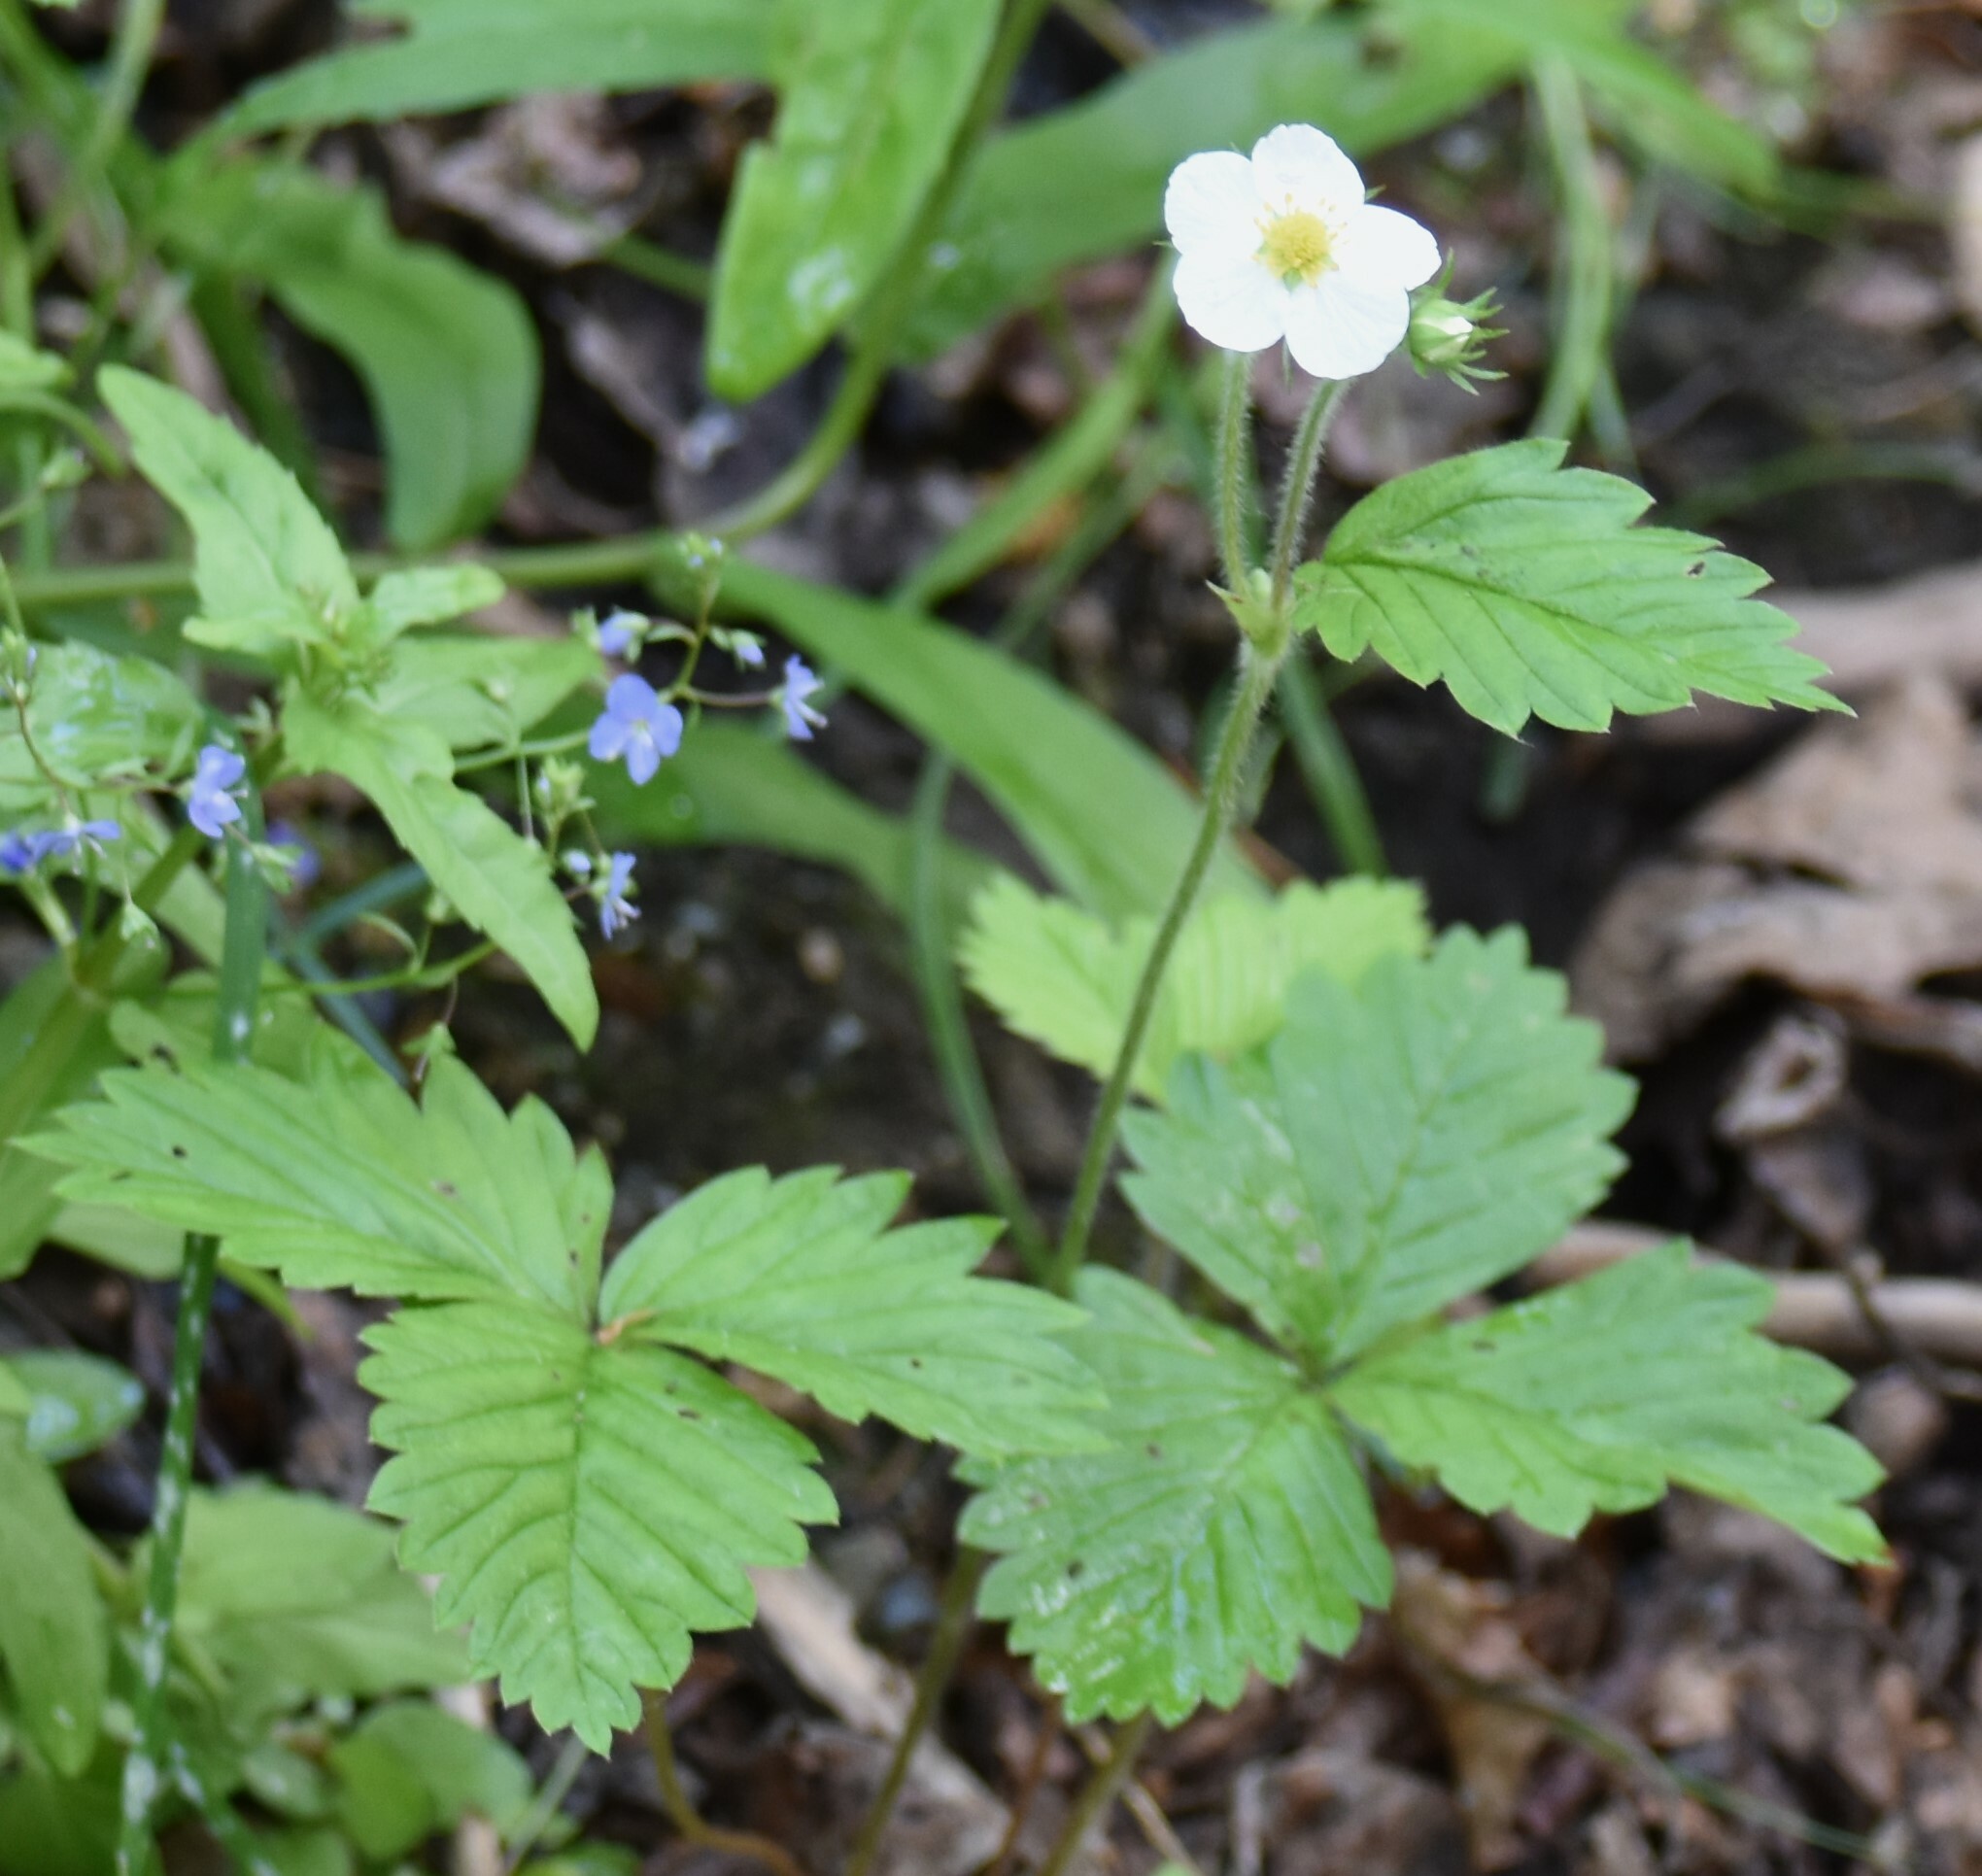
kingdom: Plantae
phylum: Tracheophyta
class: Magnoliopsida
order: Rosales
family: Rosaceae
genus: Fragaria
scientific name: Fragaria vesca
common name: Wild strawberry
